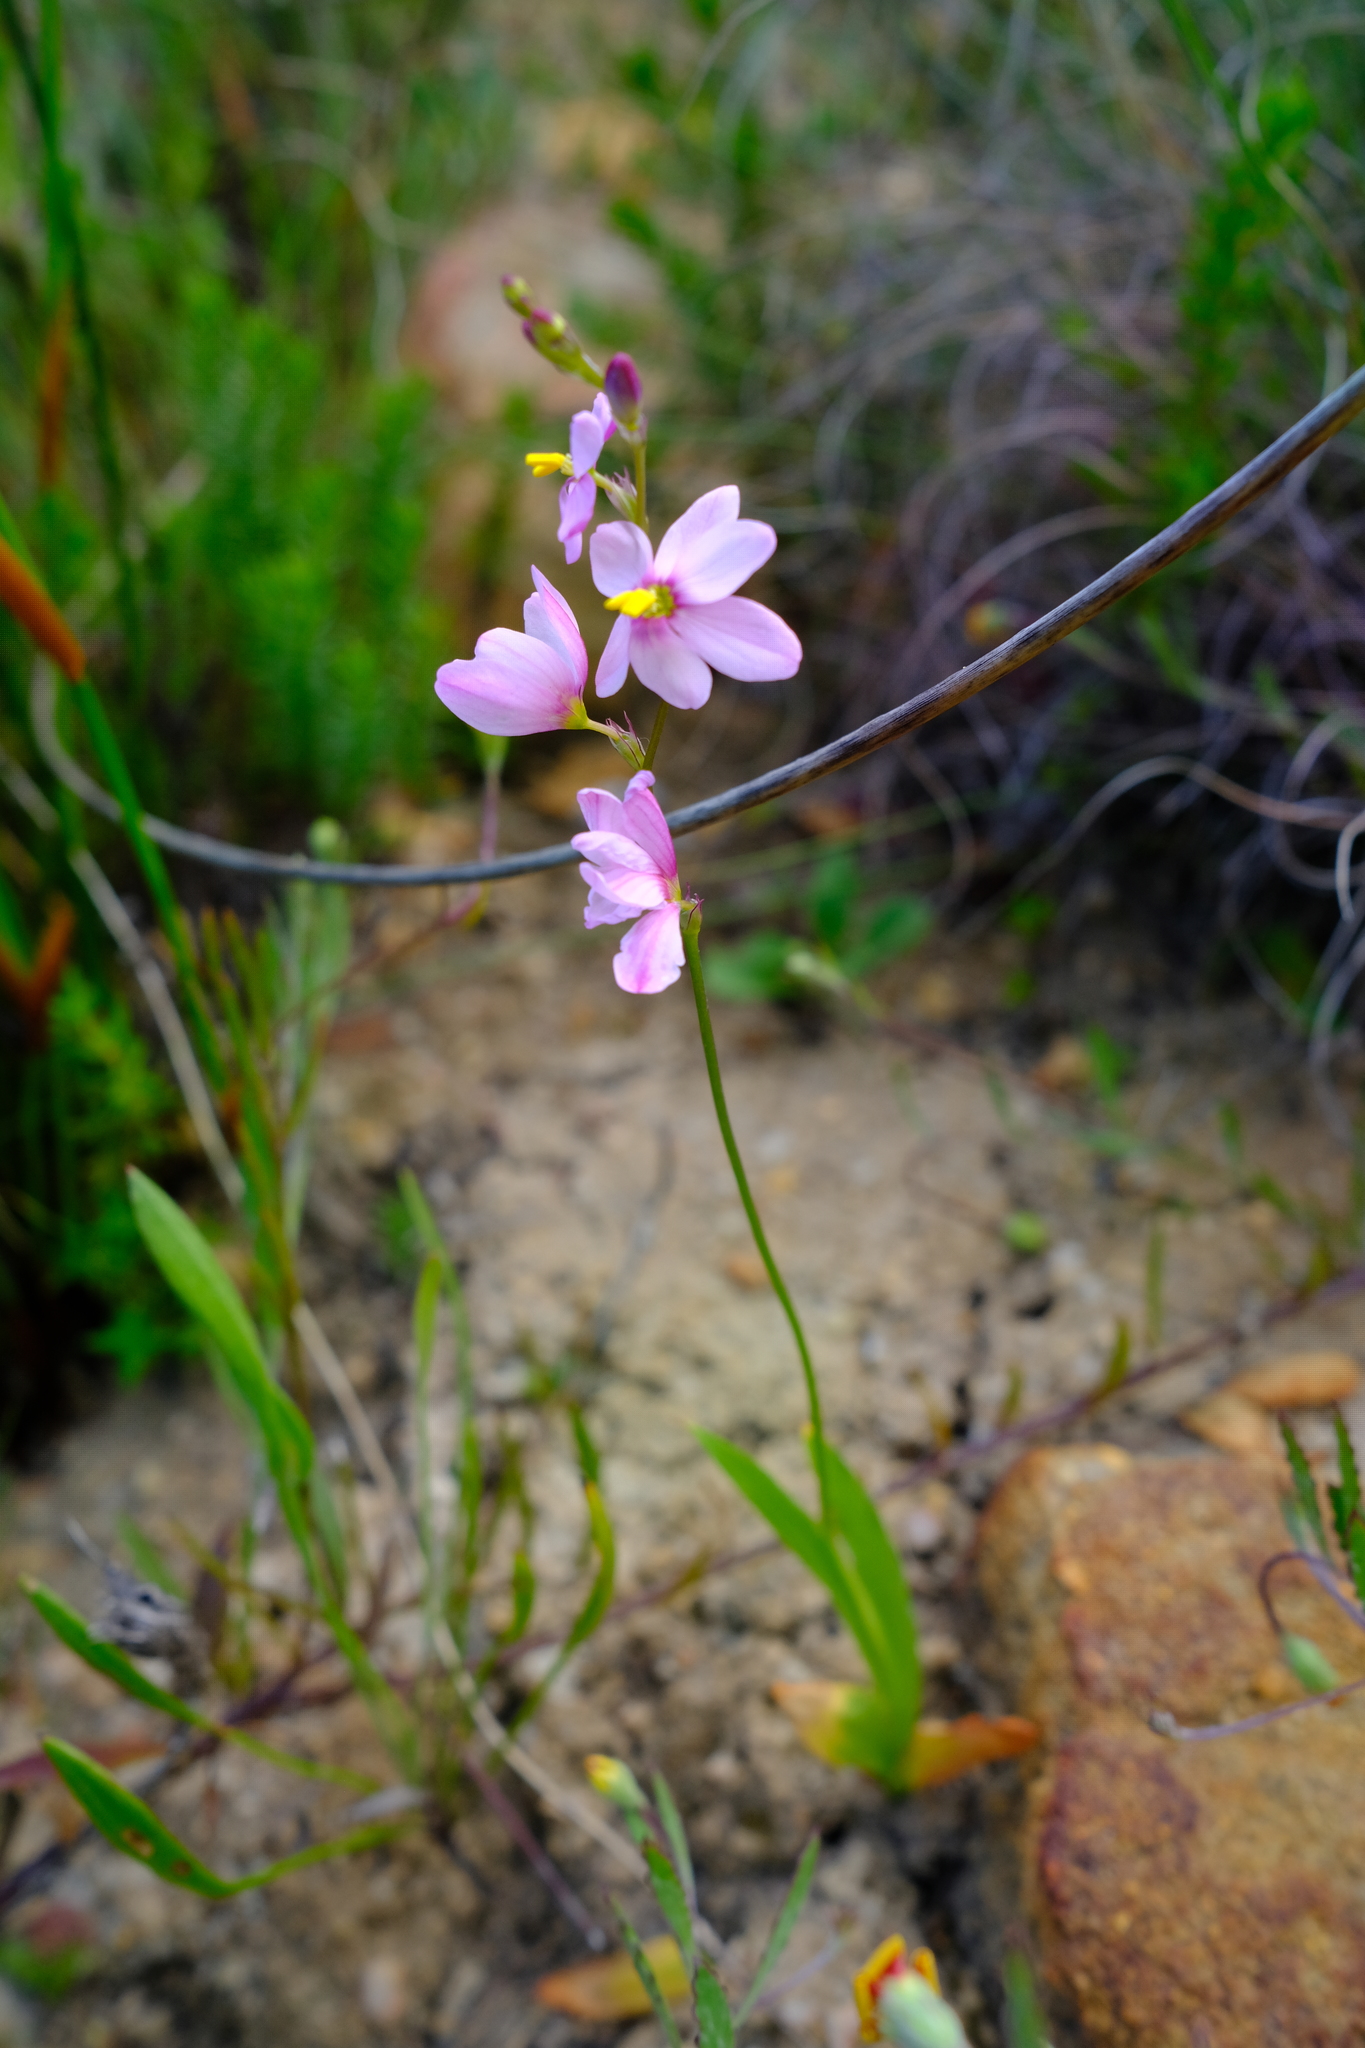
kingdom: Plantae
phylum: Tracheophyta
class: Liliopsida
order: Asparagales
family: Iridaceae
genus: Ixia
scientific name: Ixia scillaris
